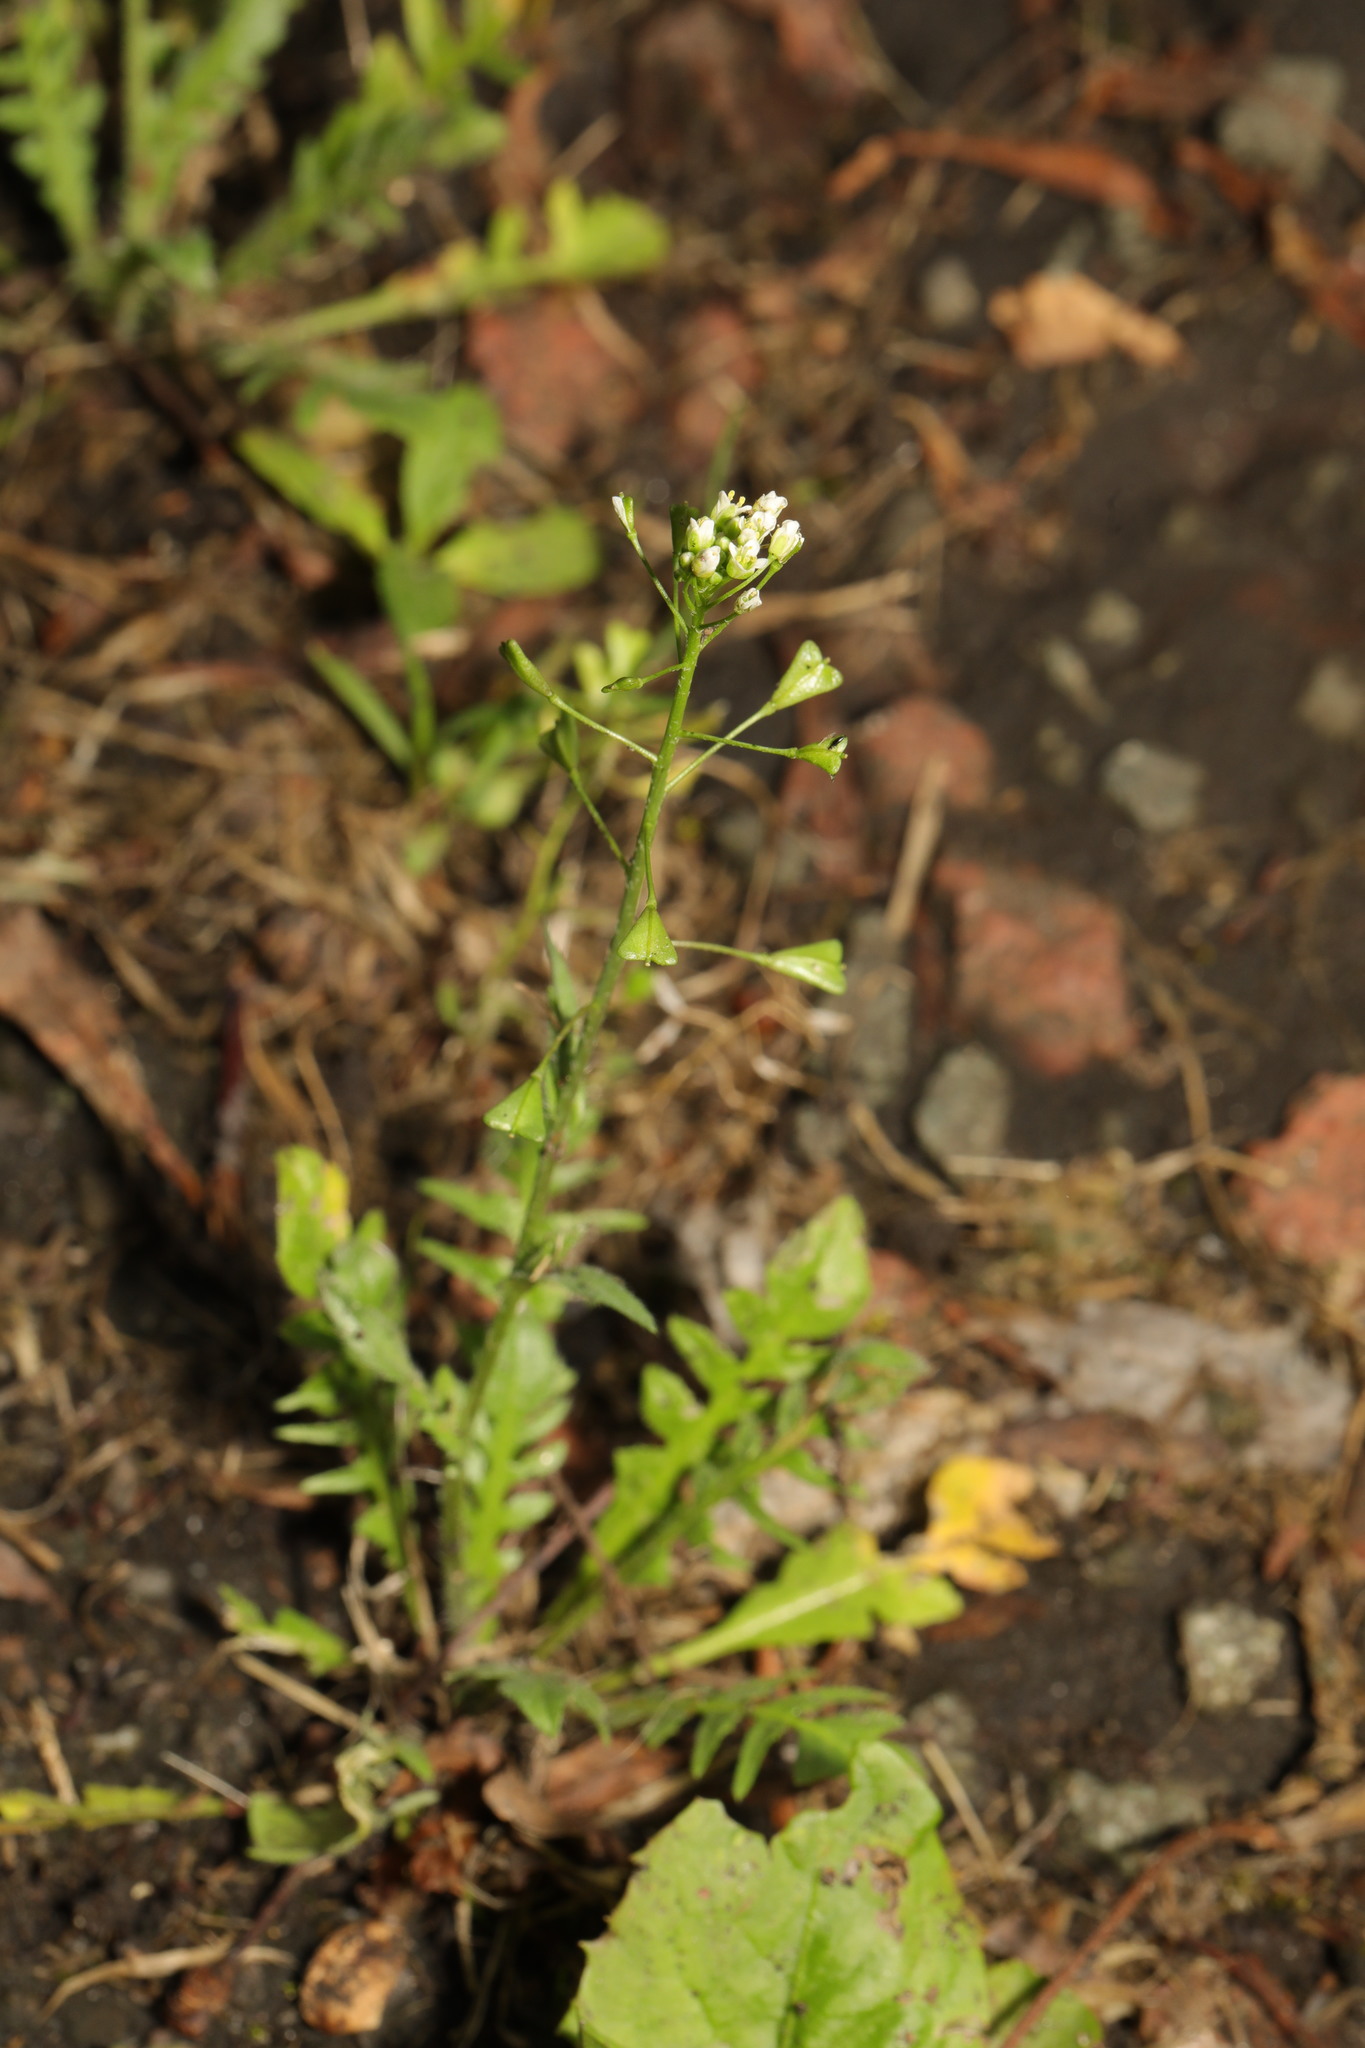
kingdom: Plantae
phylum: Tracheophyta
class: Magnoliopsida
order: Brassicales
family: Brassicaceae
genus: Capsella
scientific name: Capsella bursa-pastoris
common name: Shepherd's purse
